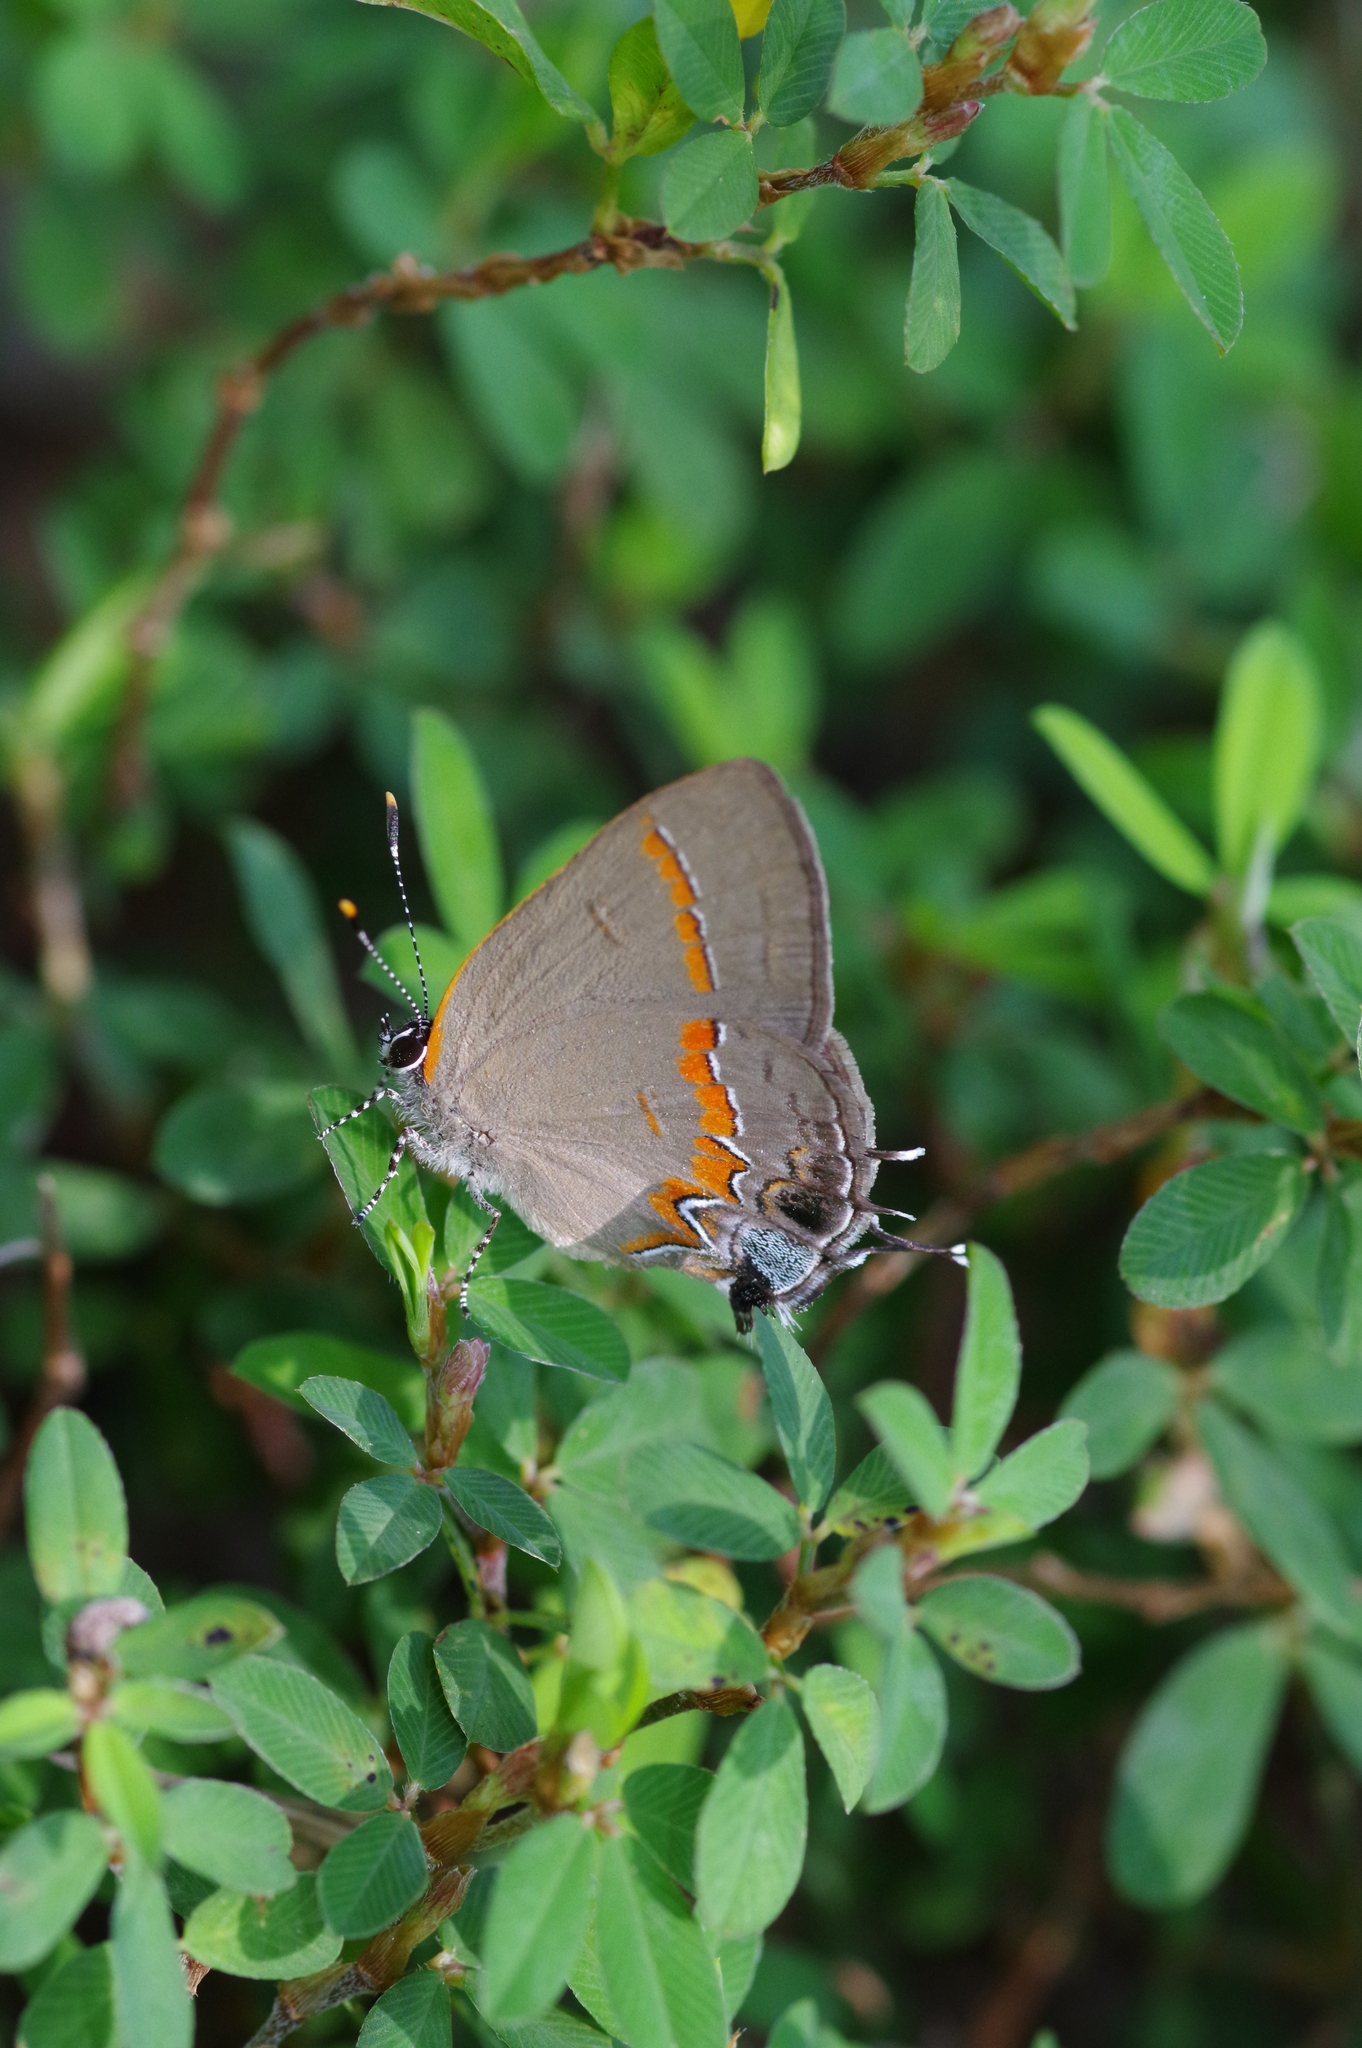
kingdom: Animalia
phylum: Arthropoda
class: Insecta
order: Lepidoptera
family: Lycaenidae
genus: Calycopis
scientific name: Calycopis cecrops
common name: Red-banded hairstreak
